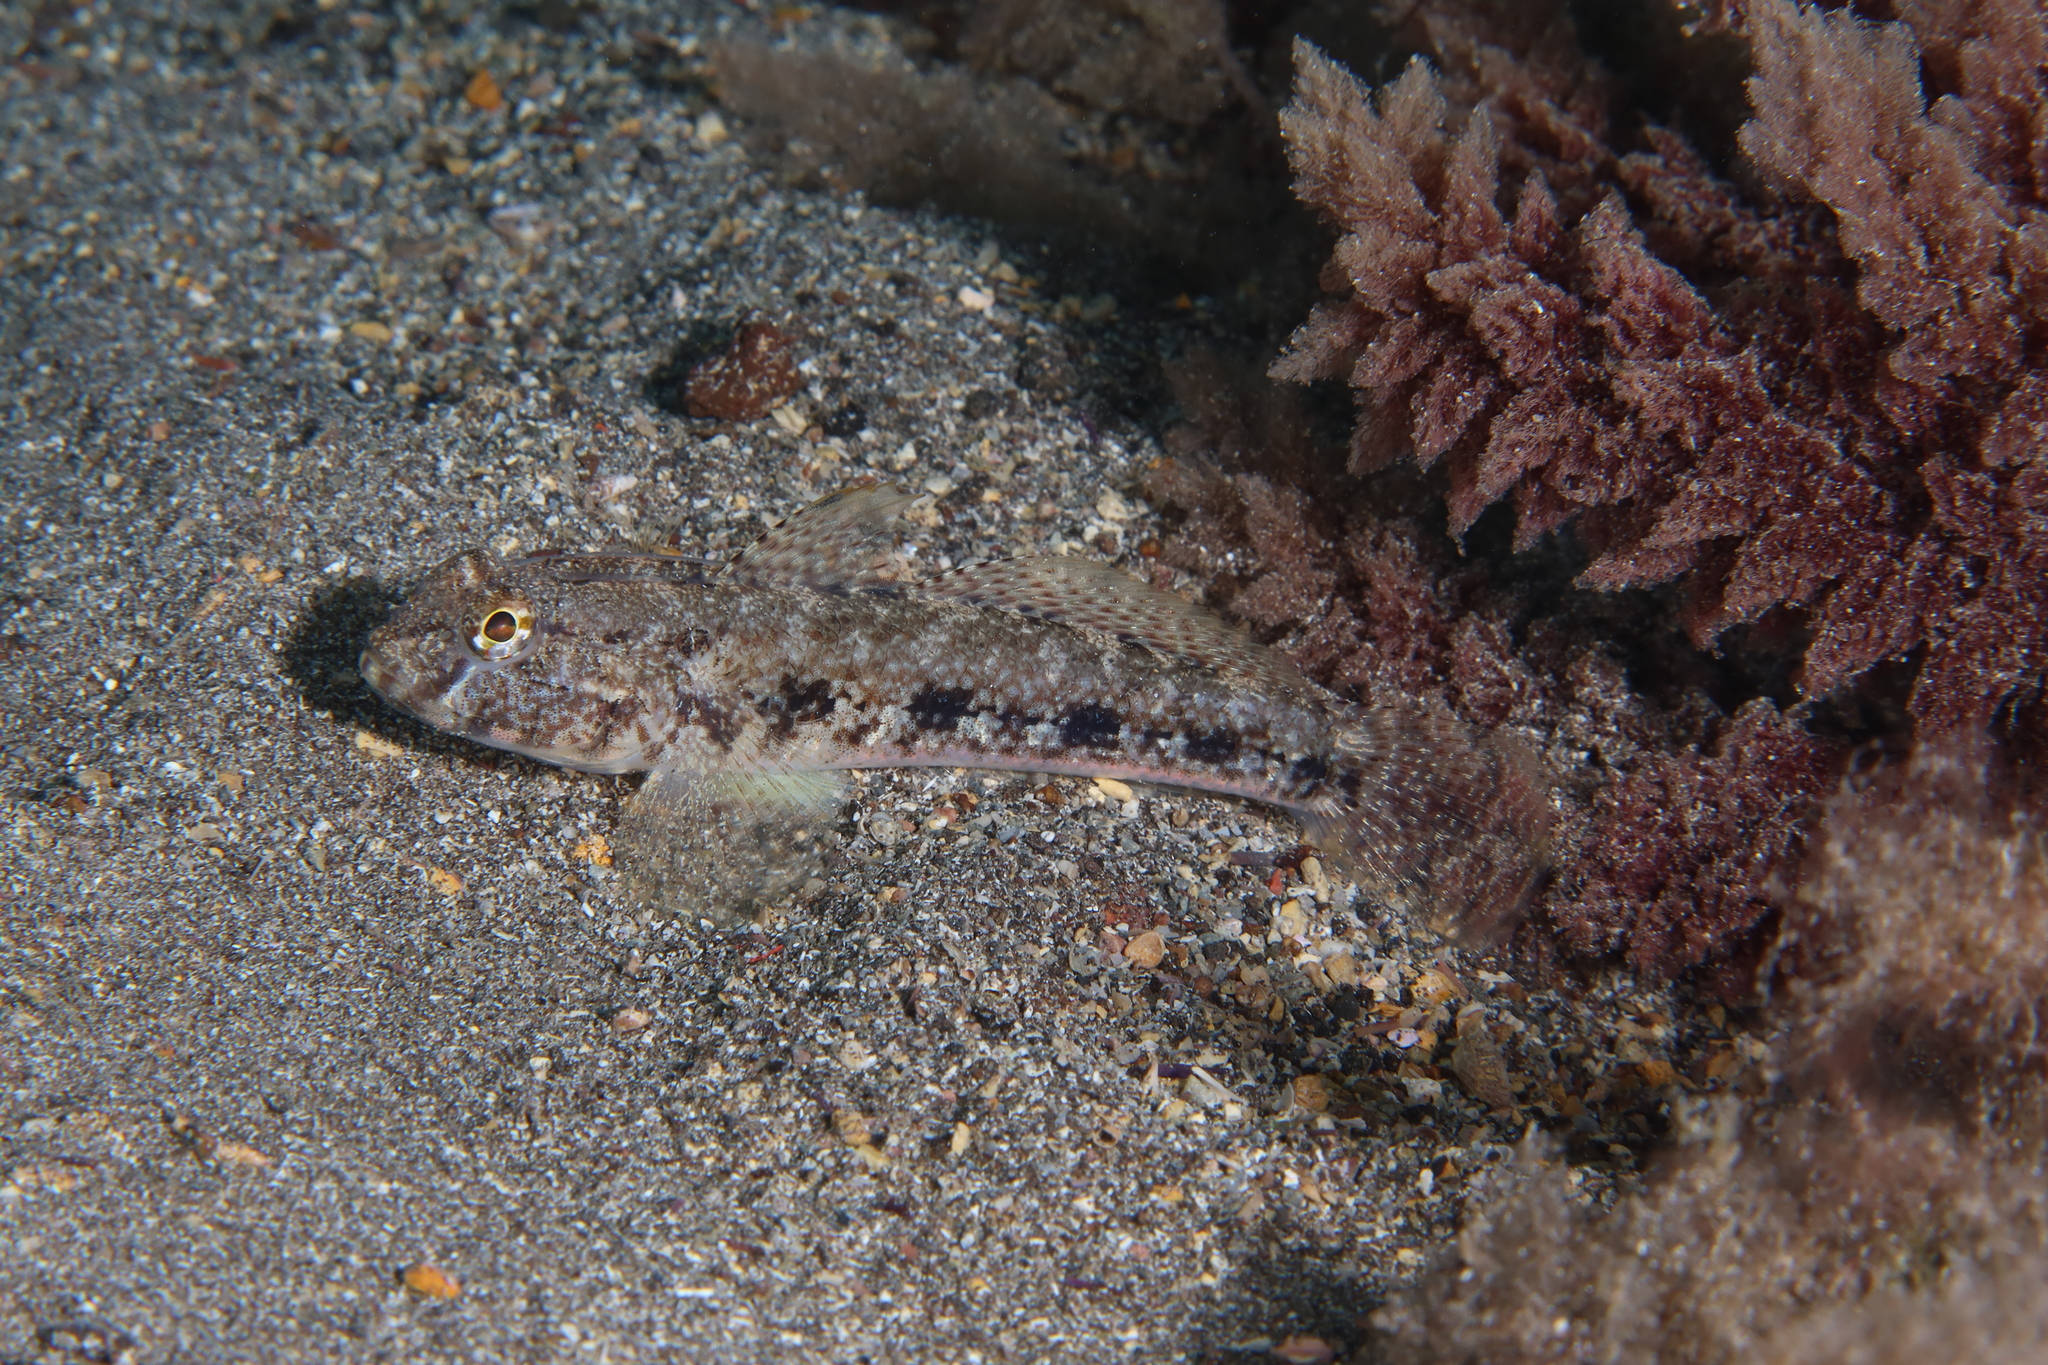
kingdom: Animalia
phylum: Chordata
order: Perciformes
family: Gobiidae
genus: Gobius
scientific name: Gobius niger
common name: Black goby
